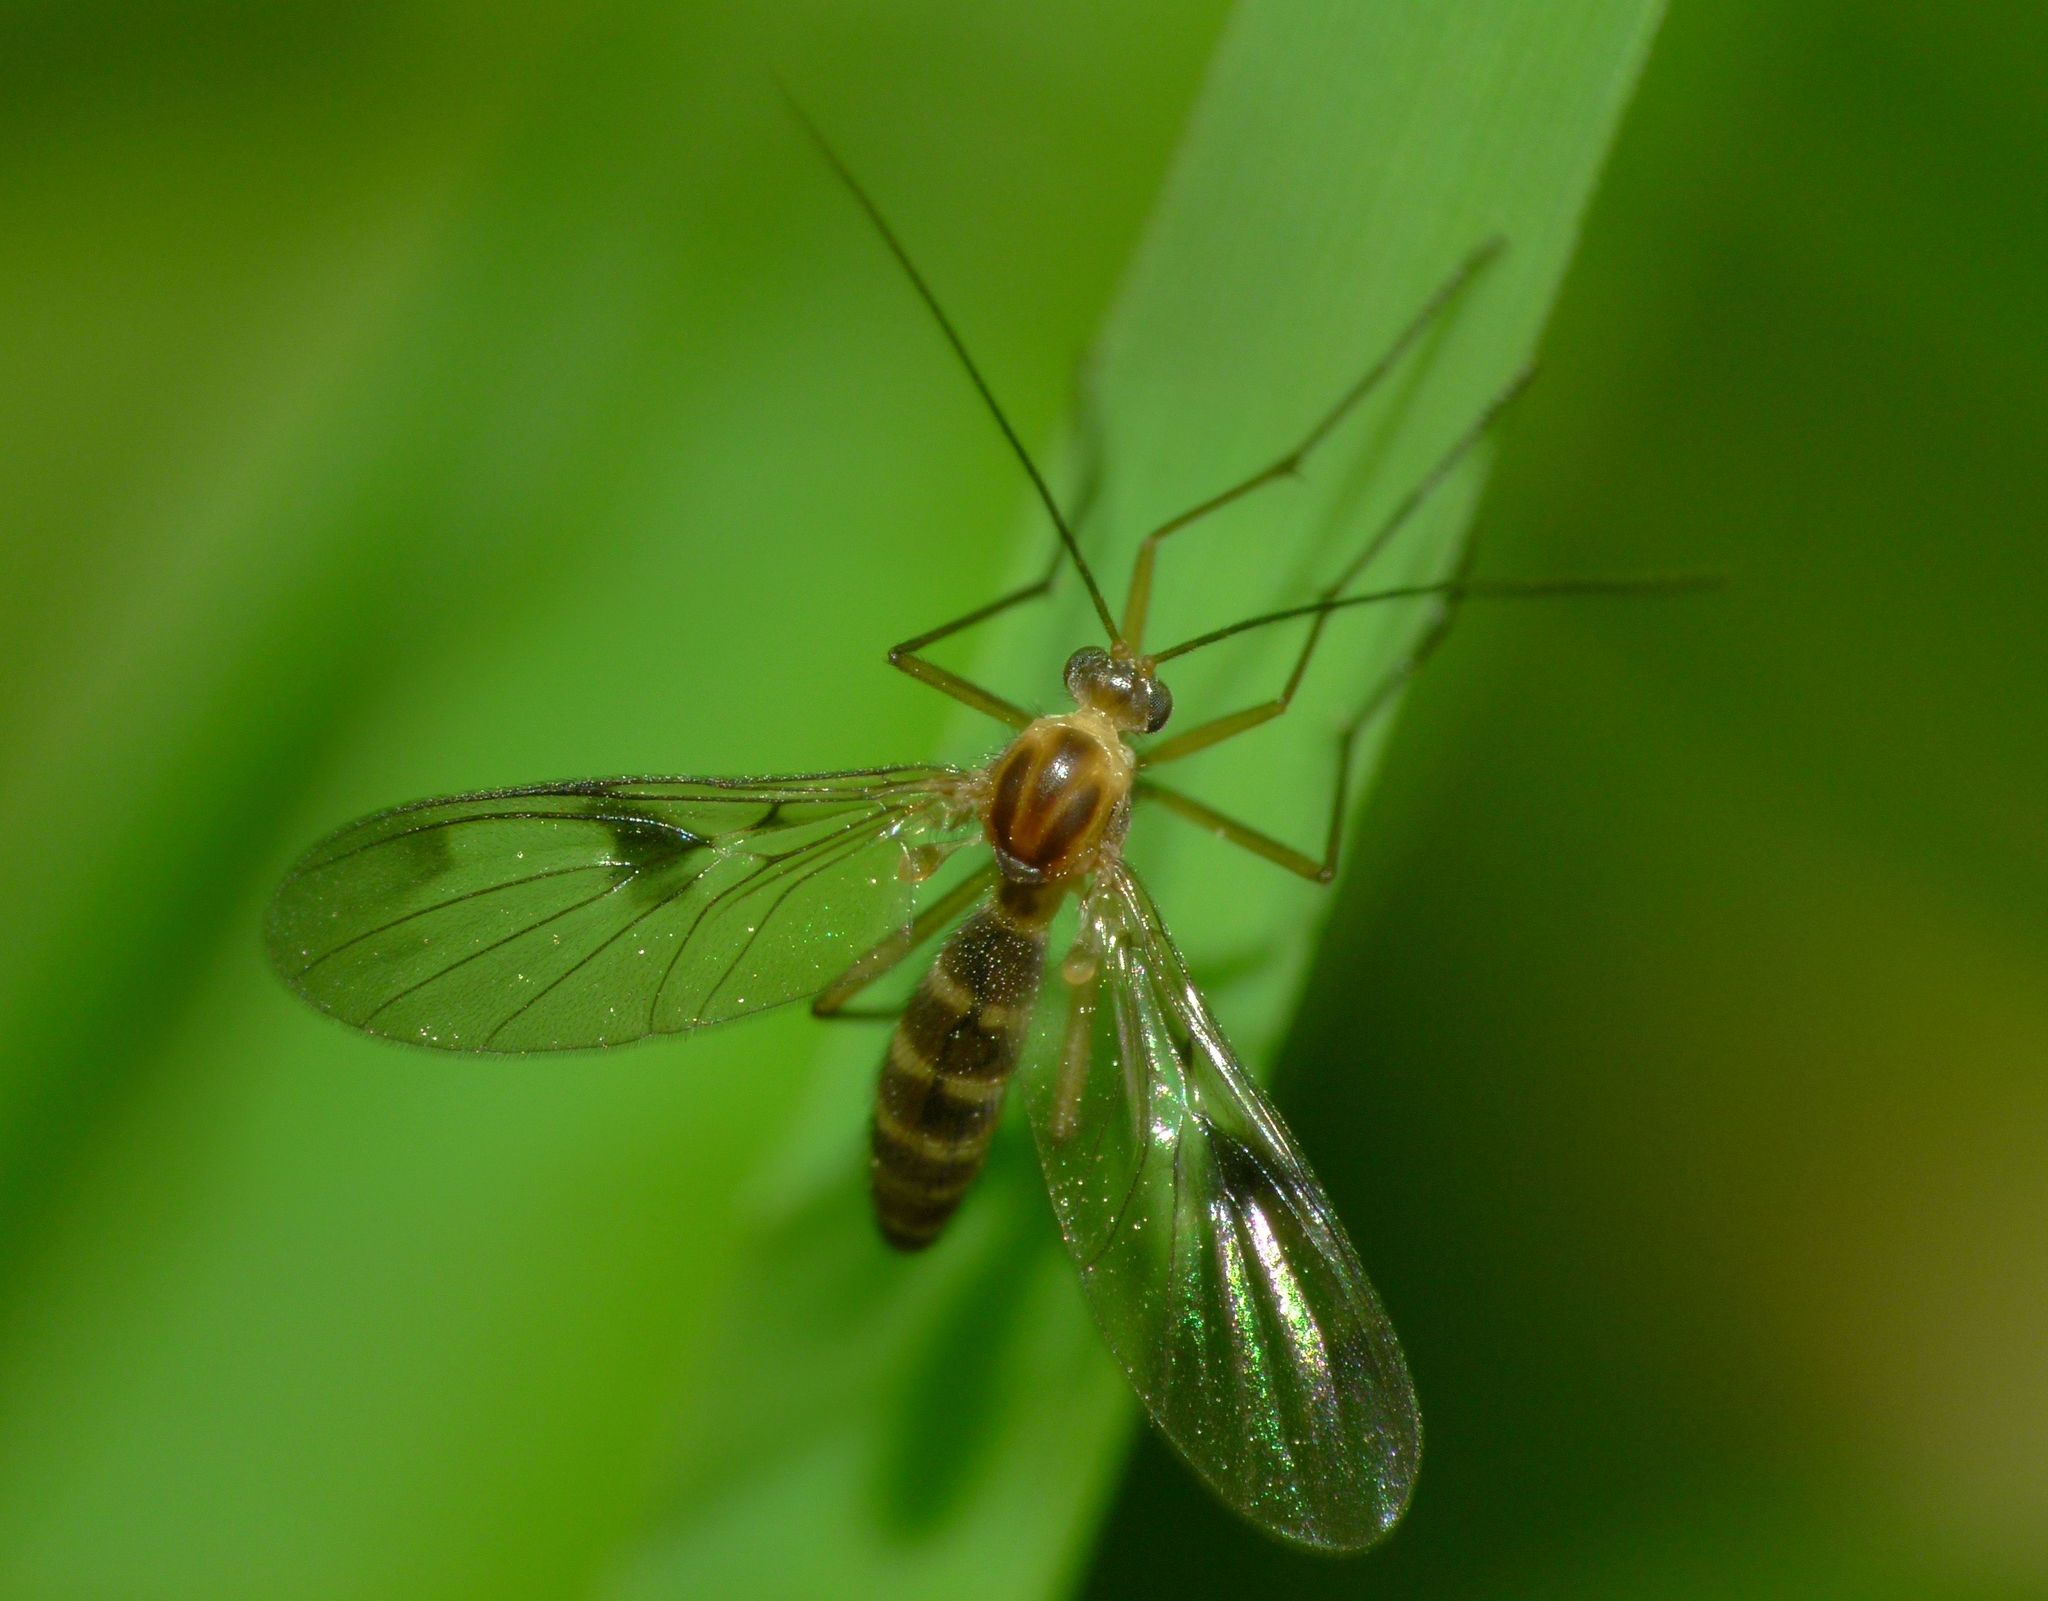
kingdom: Animalia
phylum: Arthropoda
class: Insecta
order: Diptera
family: Keroplatidae
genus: Macrocera
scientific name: Macrocera scoparia
